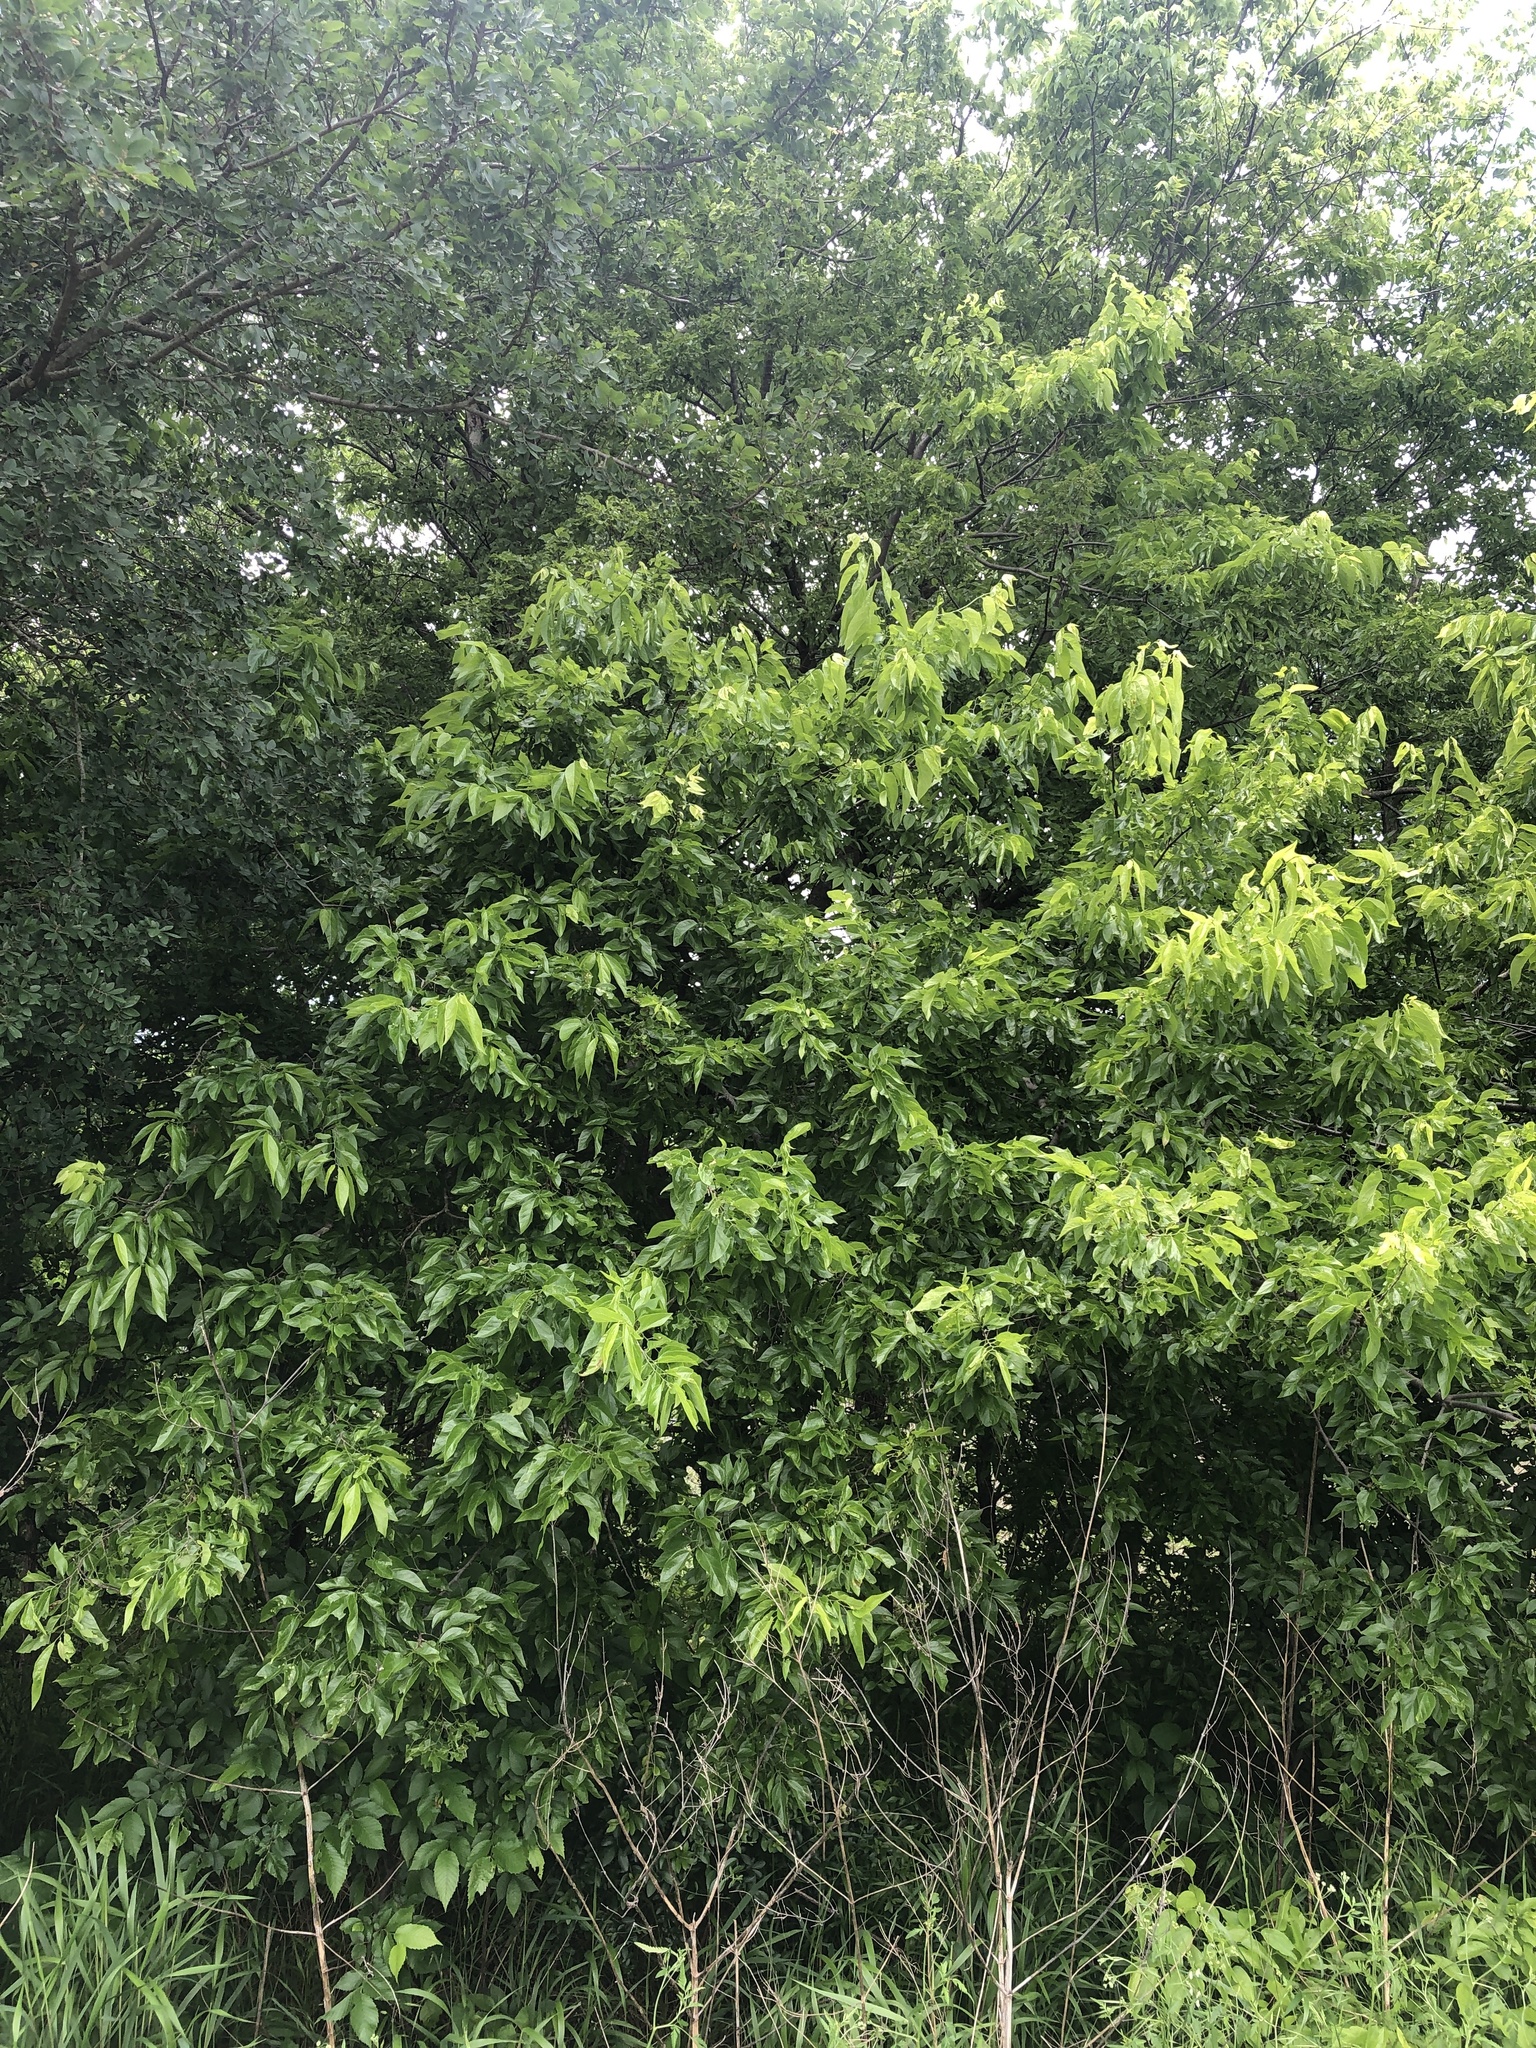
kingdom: Plantae
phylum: Tracheophyta
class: Magnoliopsida
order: Rosales
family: Cannabaceae
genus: Celtis
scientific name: Celtis laevigata
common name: Sugarberry
